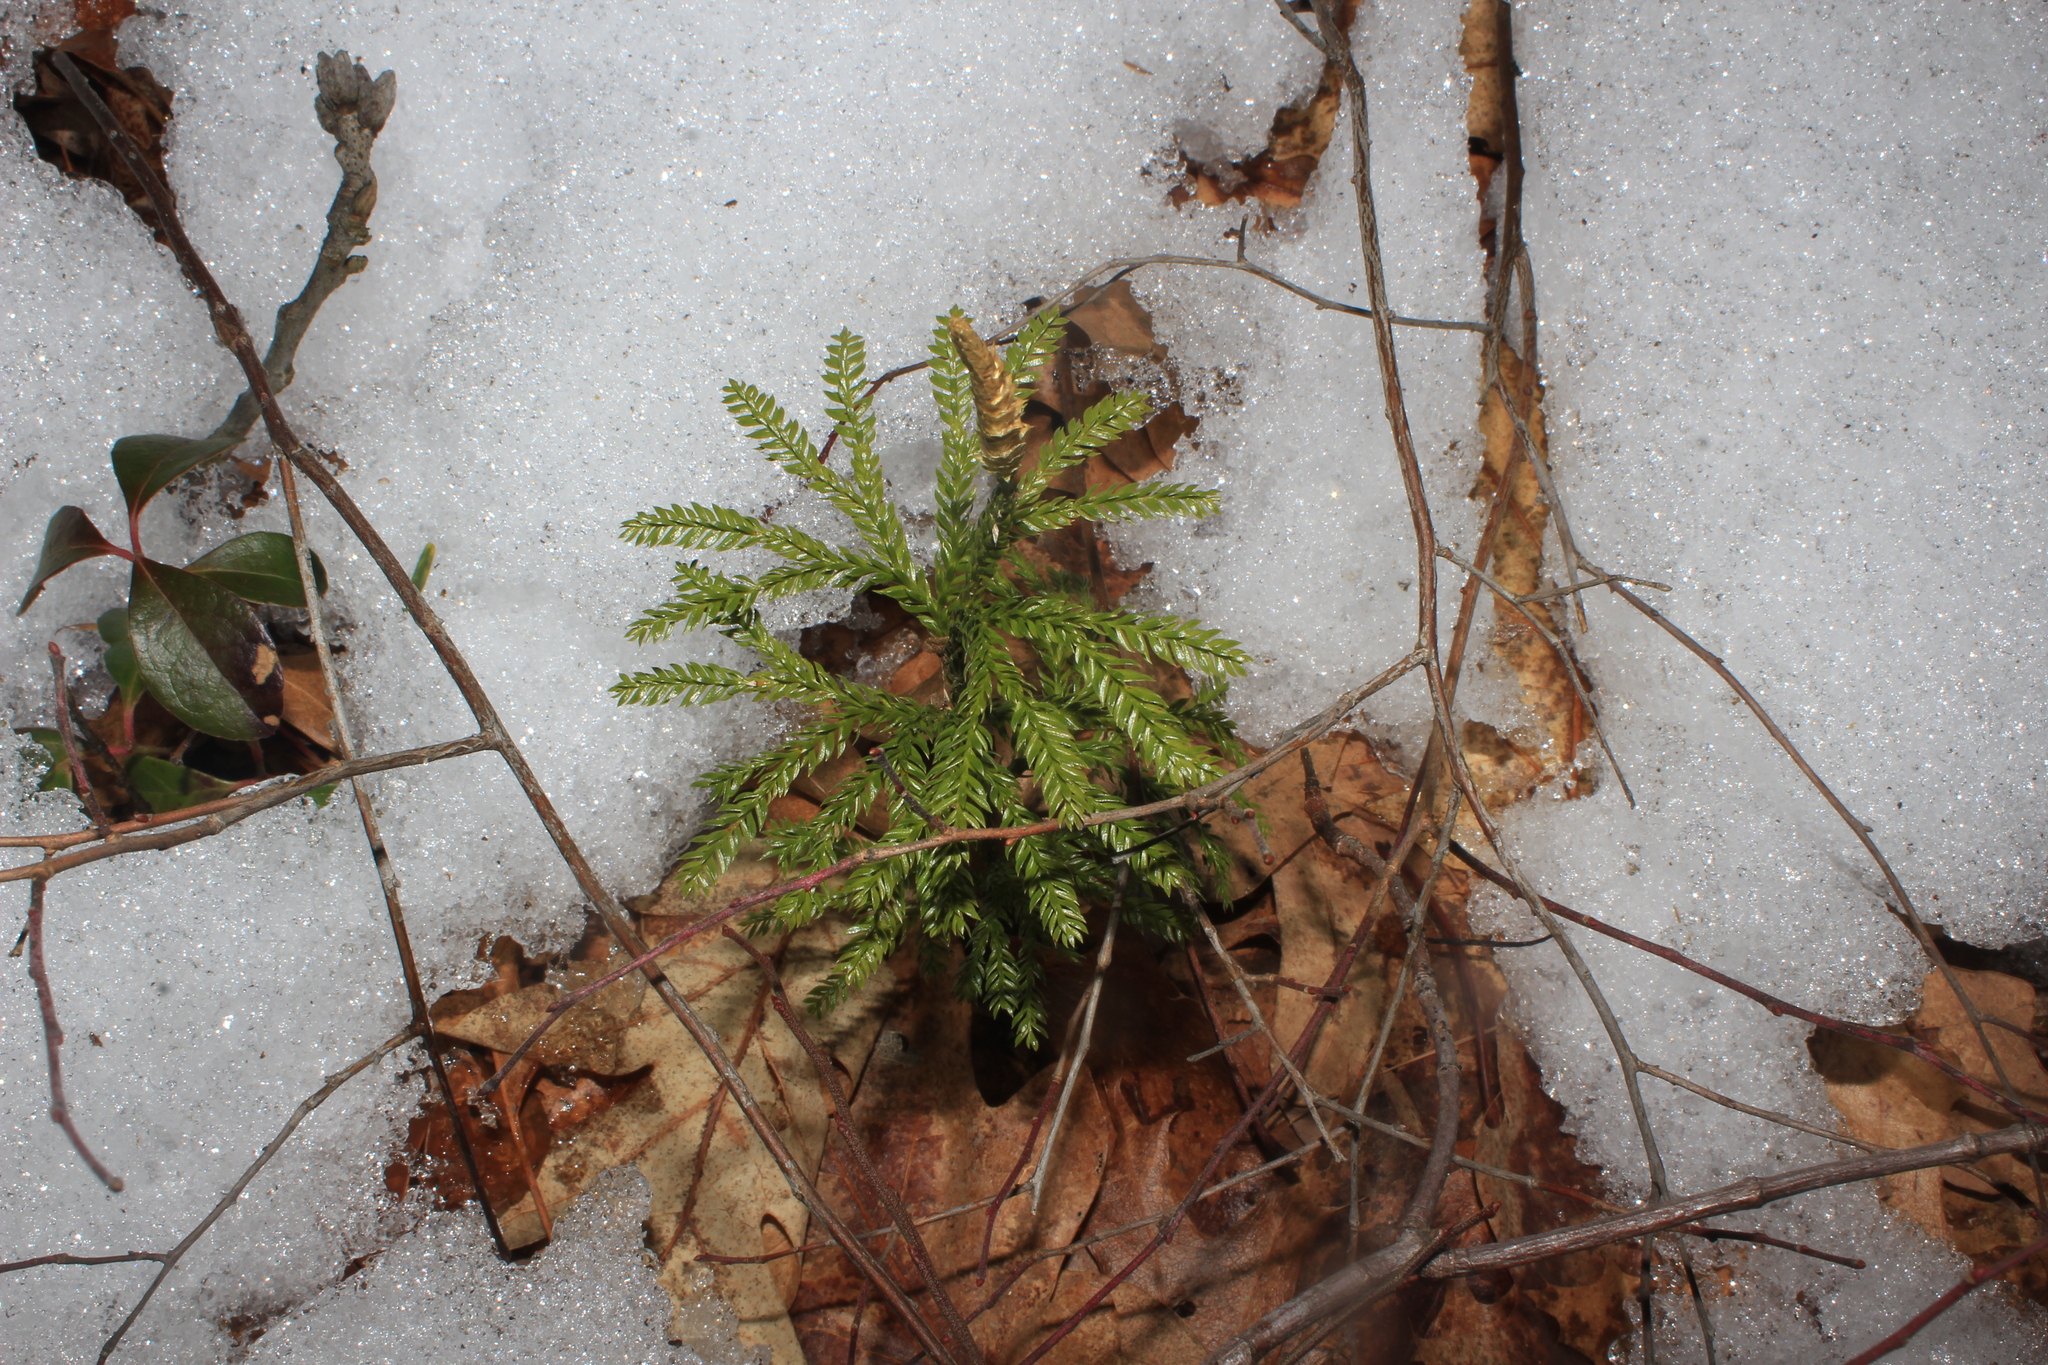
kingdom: Plantae
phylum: Tracheophyta
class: Lycopodiopsida
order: Lycopodiales
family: Lycopodiaceae
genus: Dendrolycopodium
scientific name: Dendrolycopodium obscurum
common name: Common ground-pine
